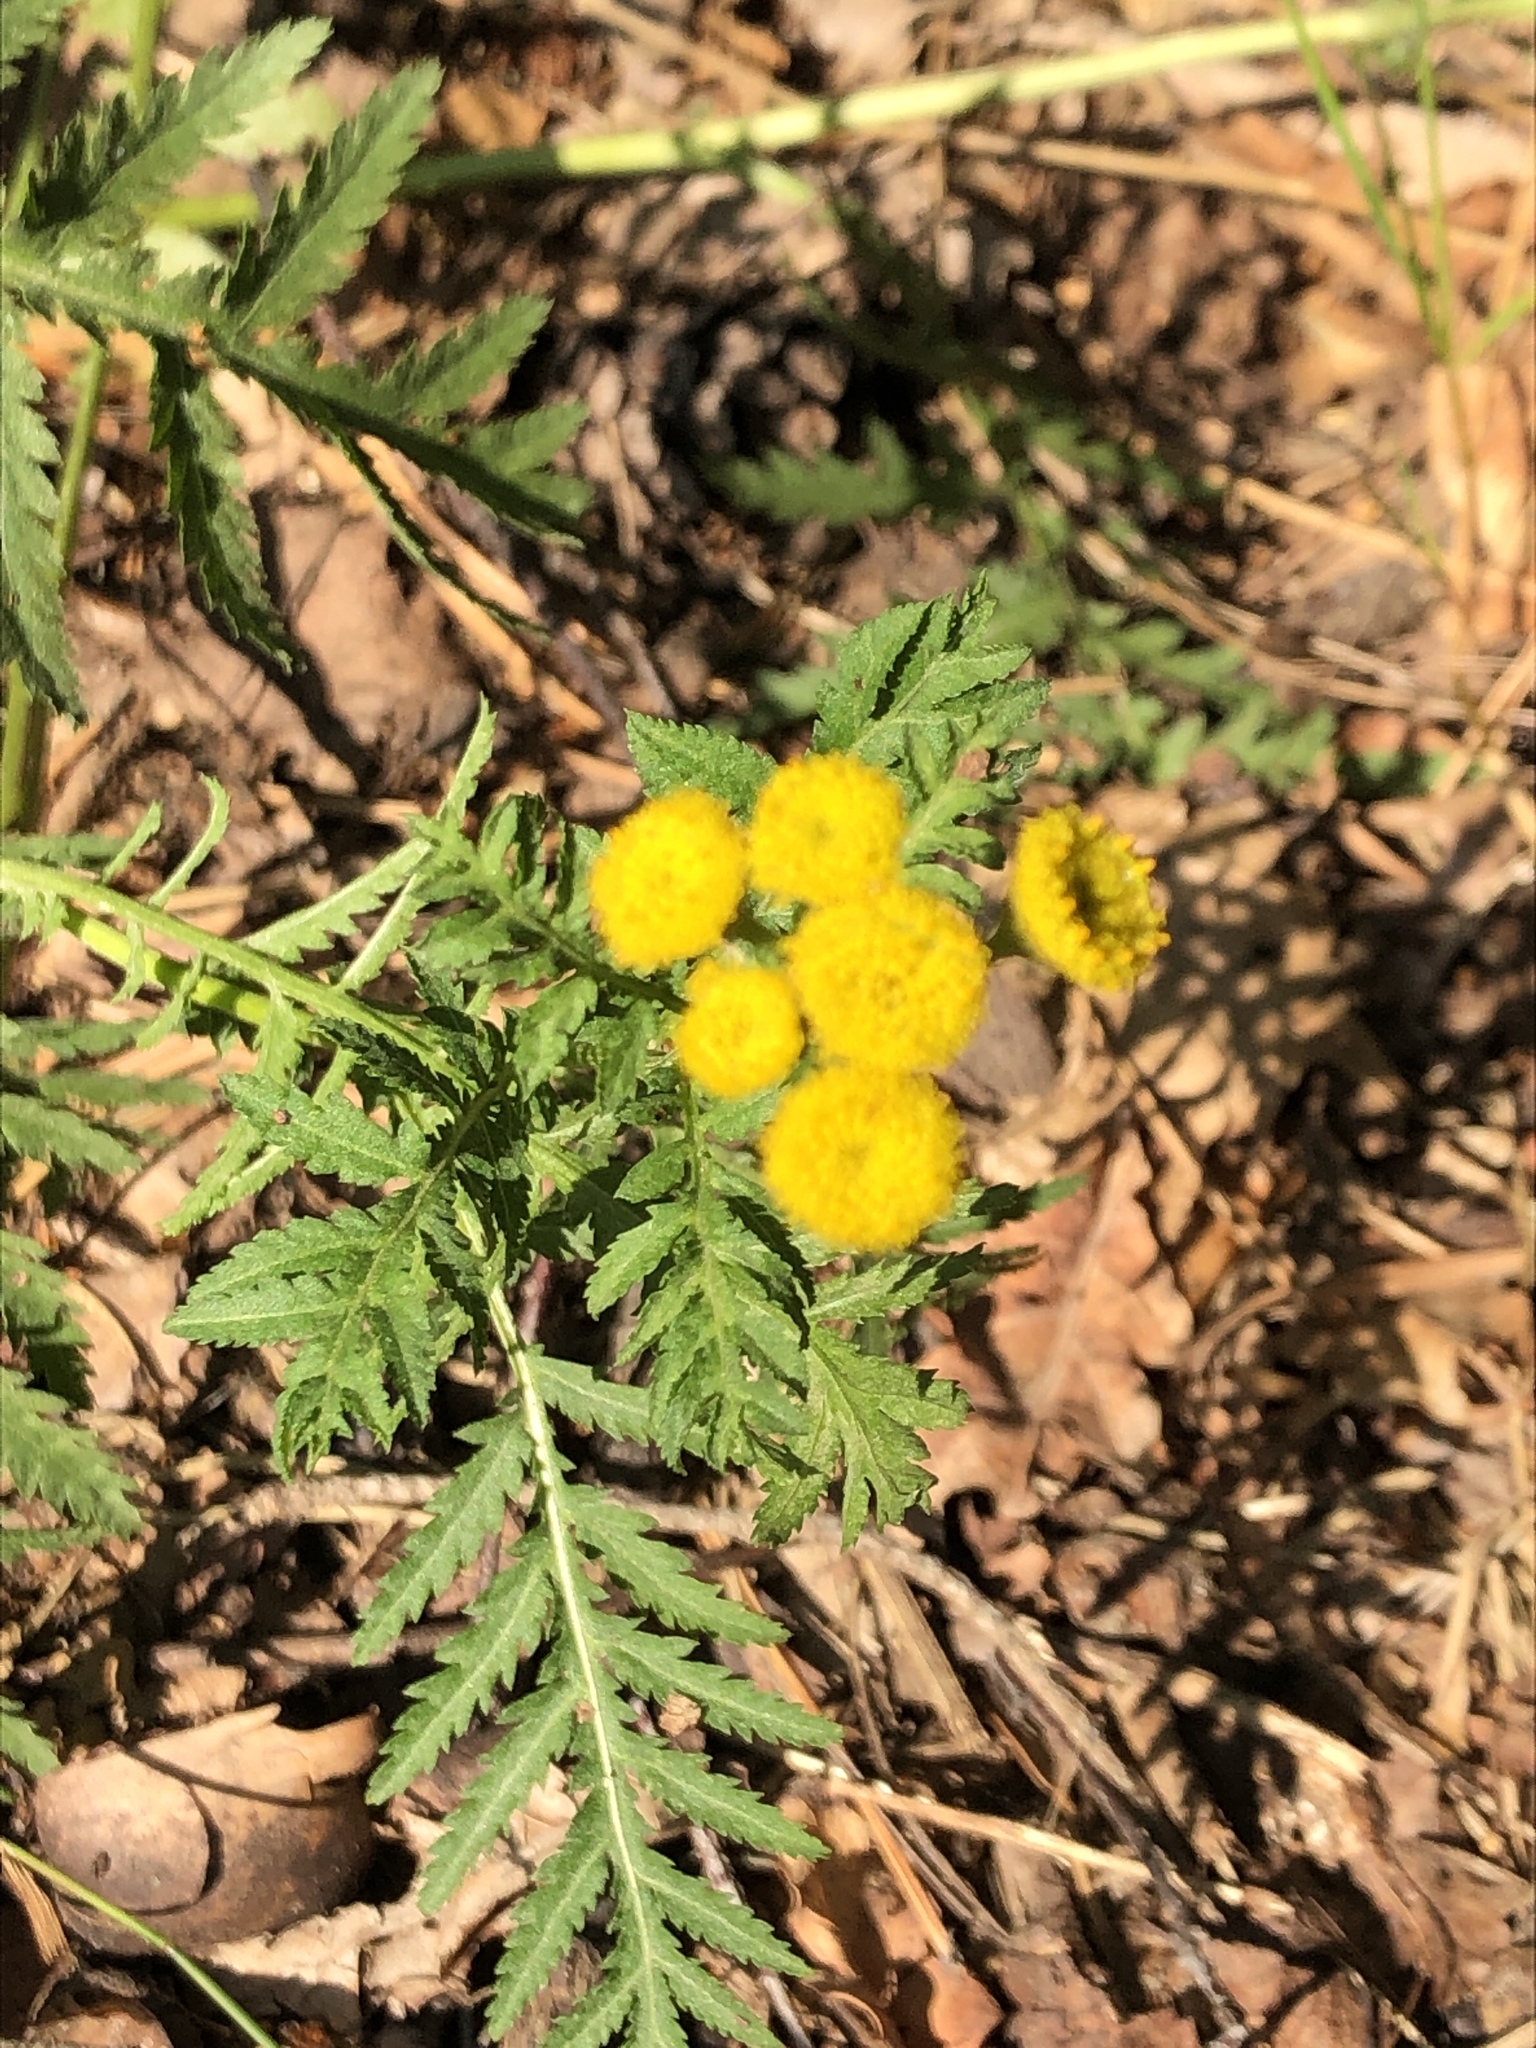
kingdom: Plantae
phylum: Tracheophyta
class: Magnoliopsida
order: Asterales
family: Asteraceae
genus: Tanacetum
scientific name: Tanacetum vulgare
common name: Common tansy
